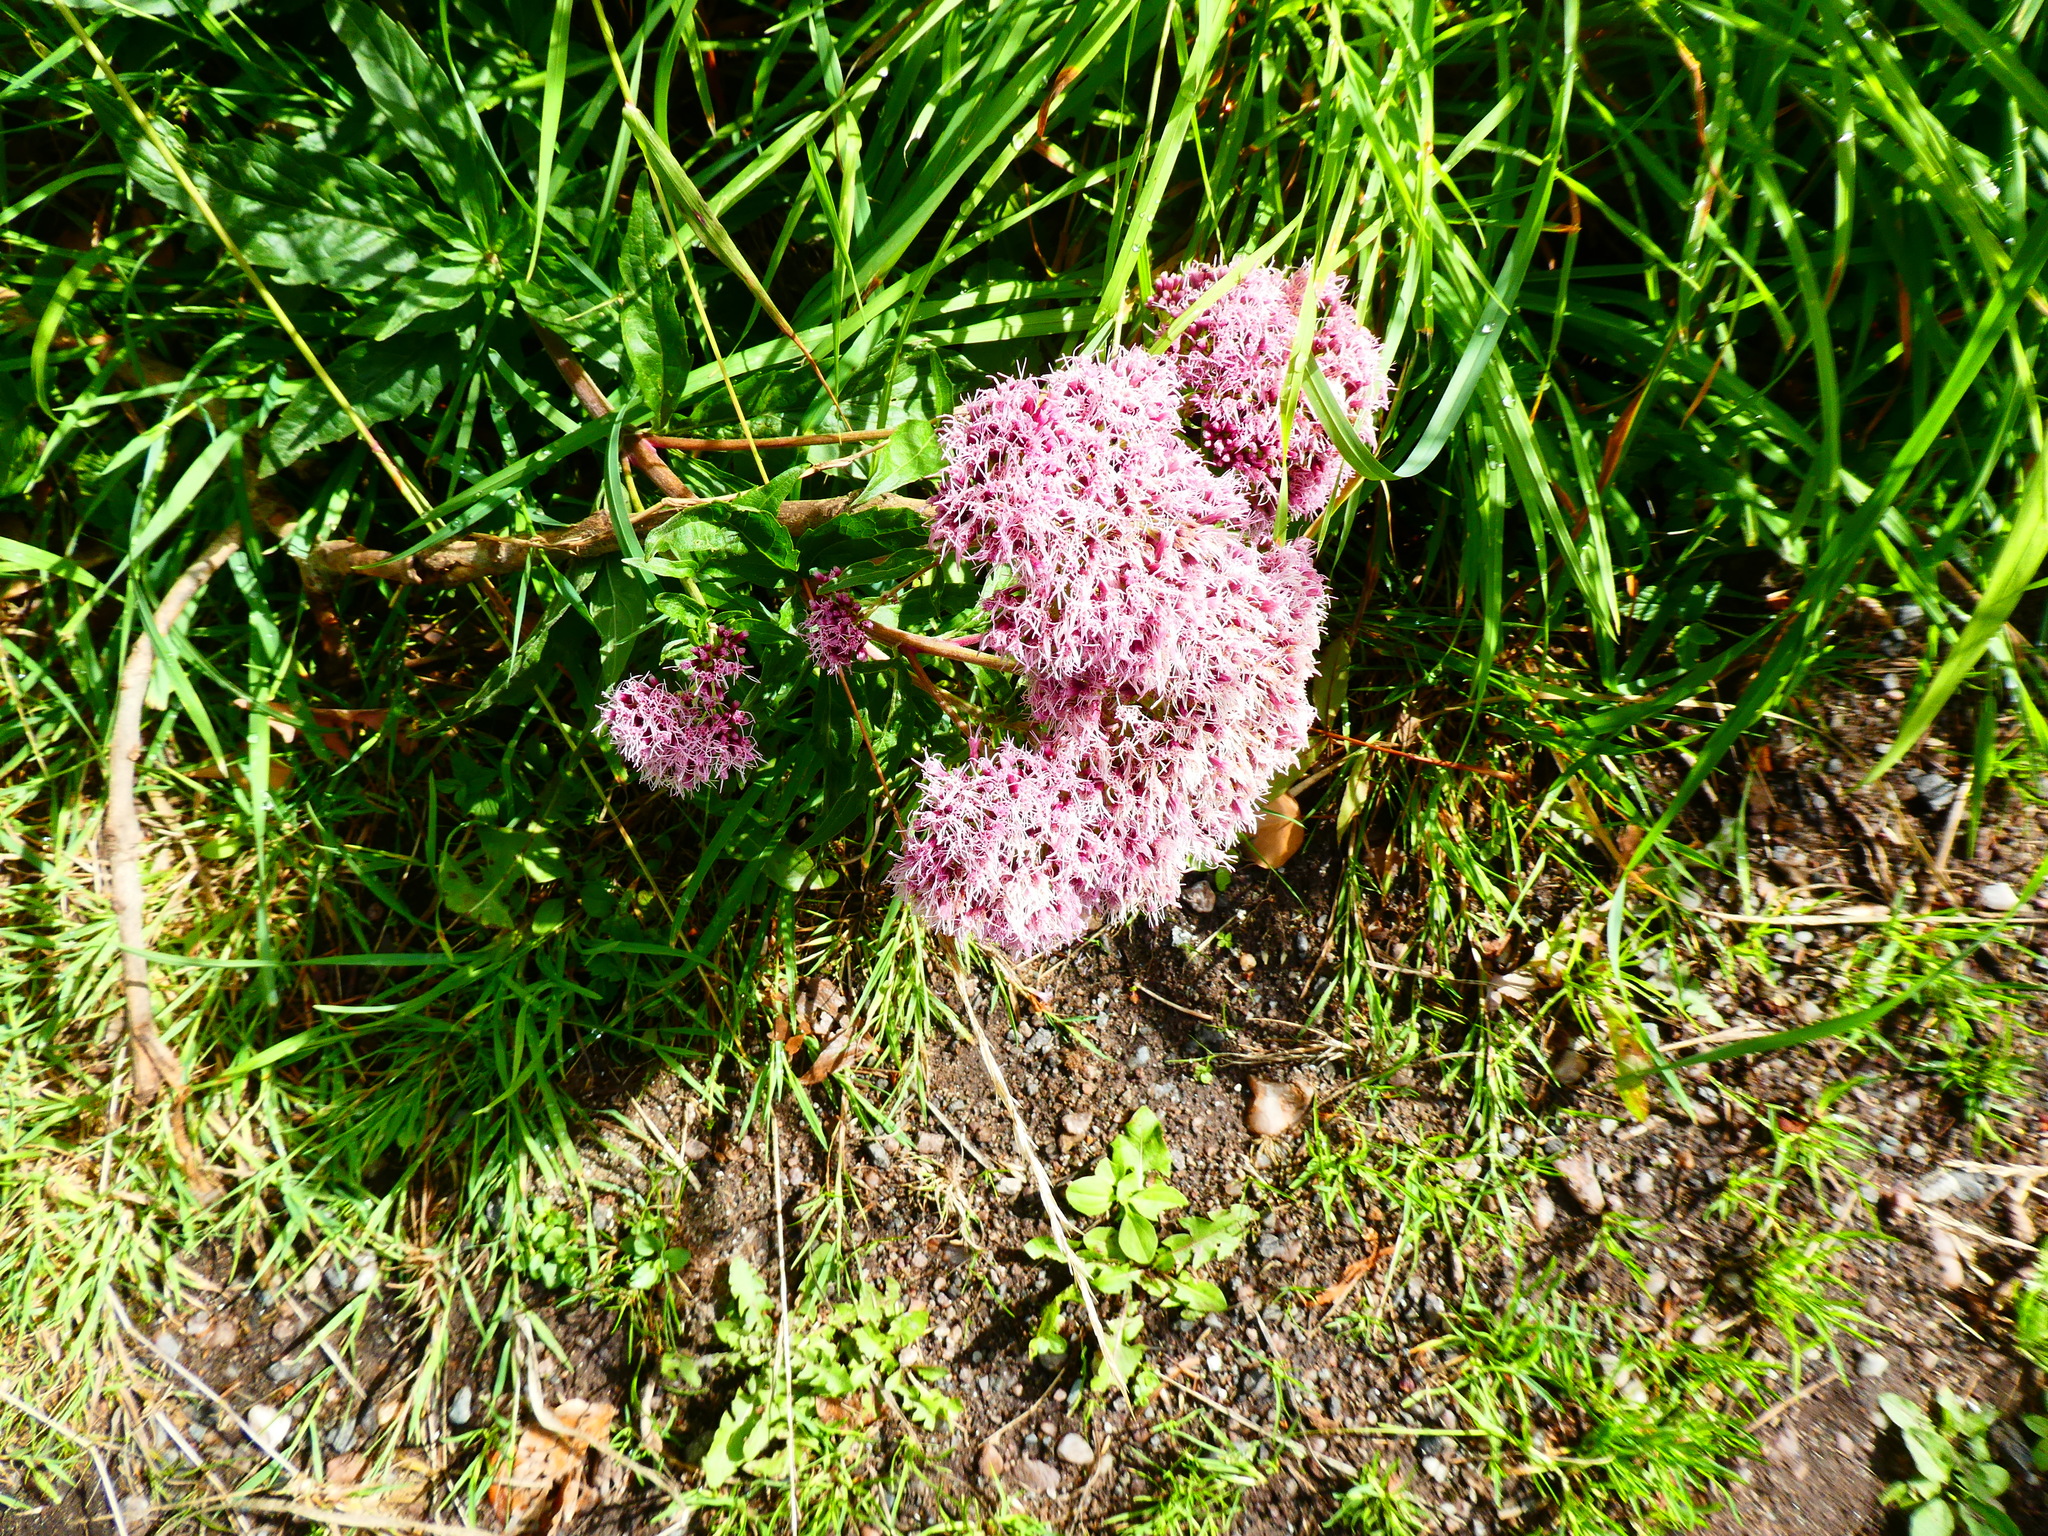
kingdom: Plantae
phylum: Tracheophyta
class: Magnoliopsida
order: Asterales
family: Asteraceae
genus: Eupatorium
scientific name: Eupatorium cannabinum
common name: Hemp-agrimony
